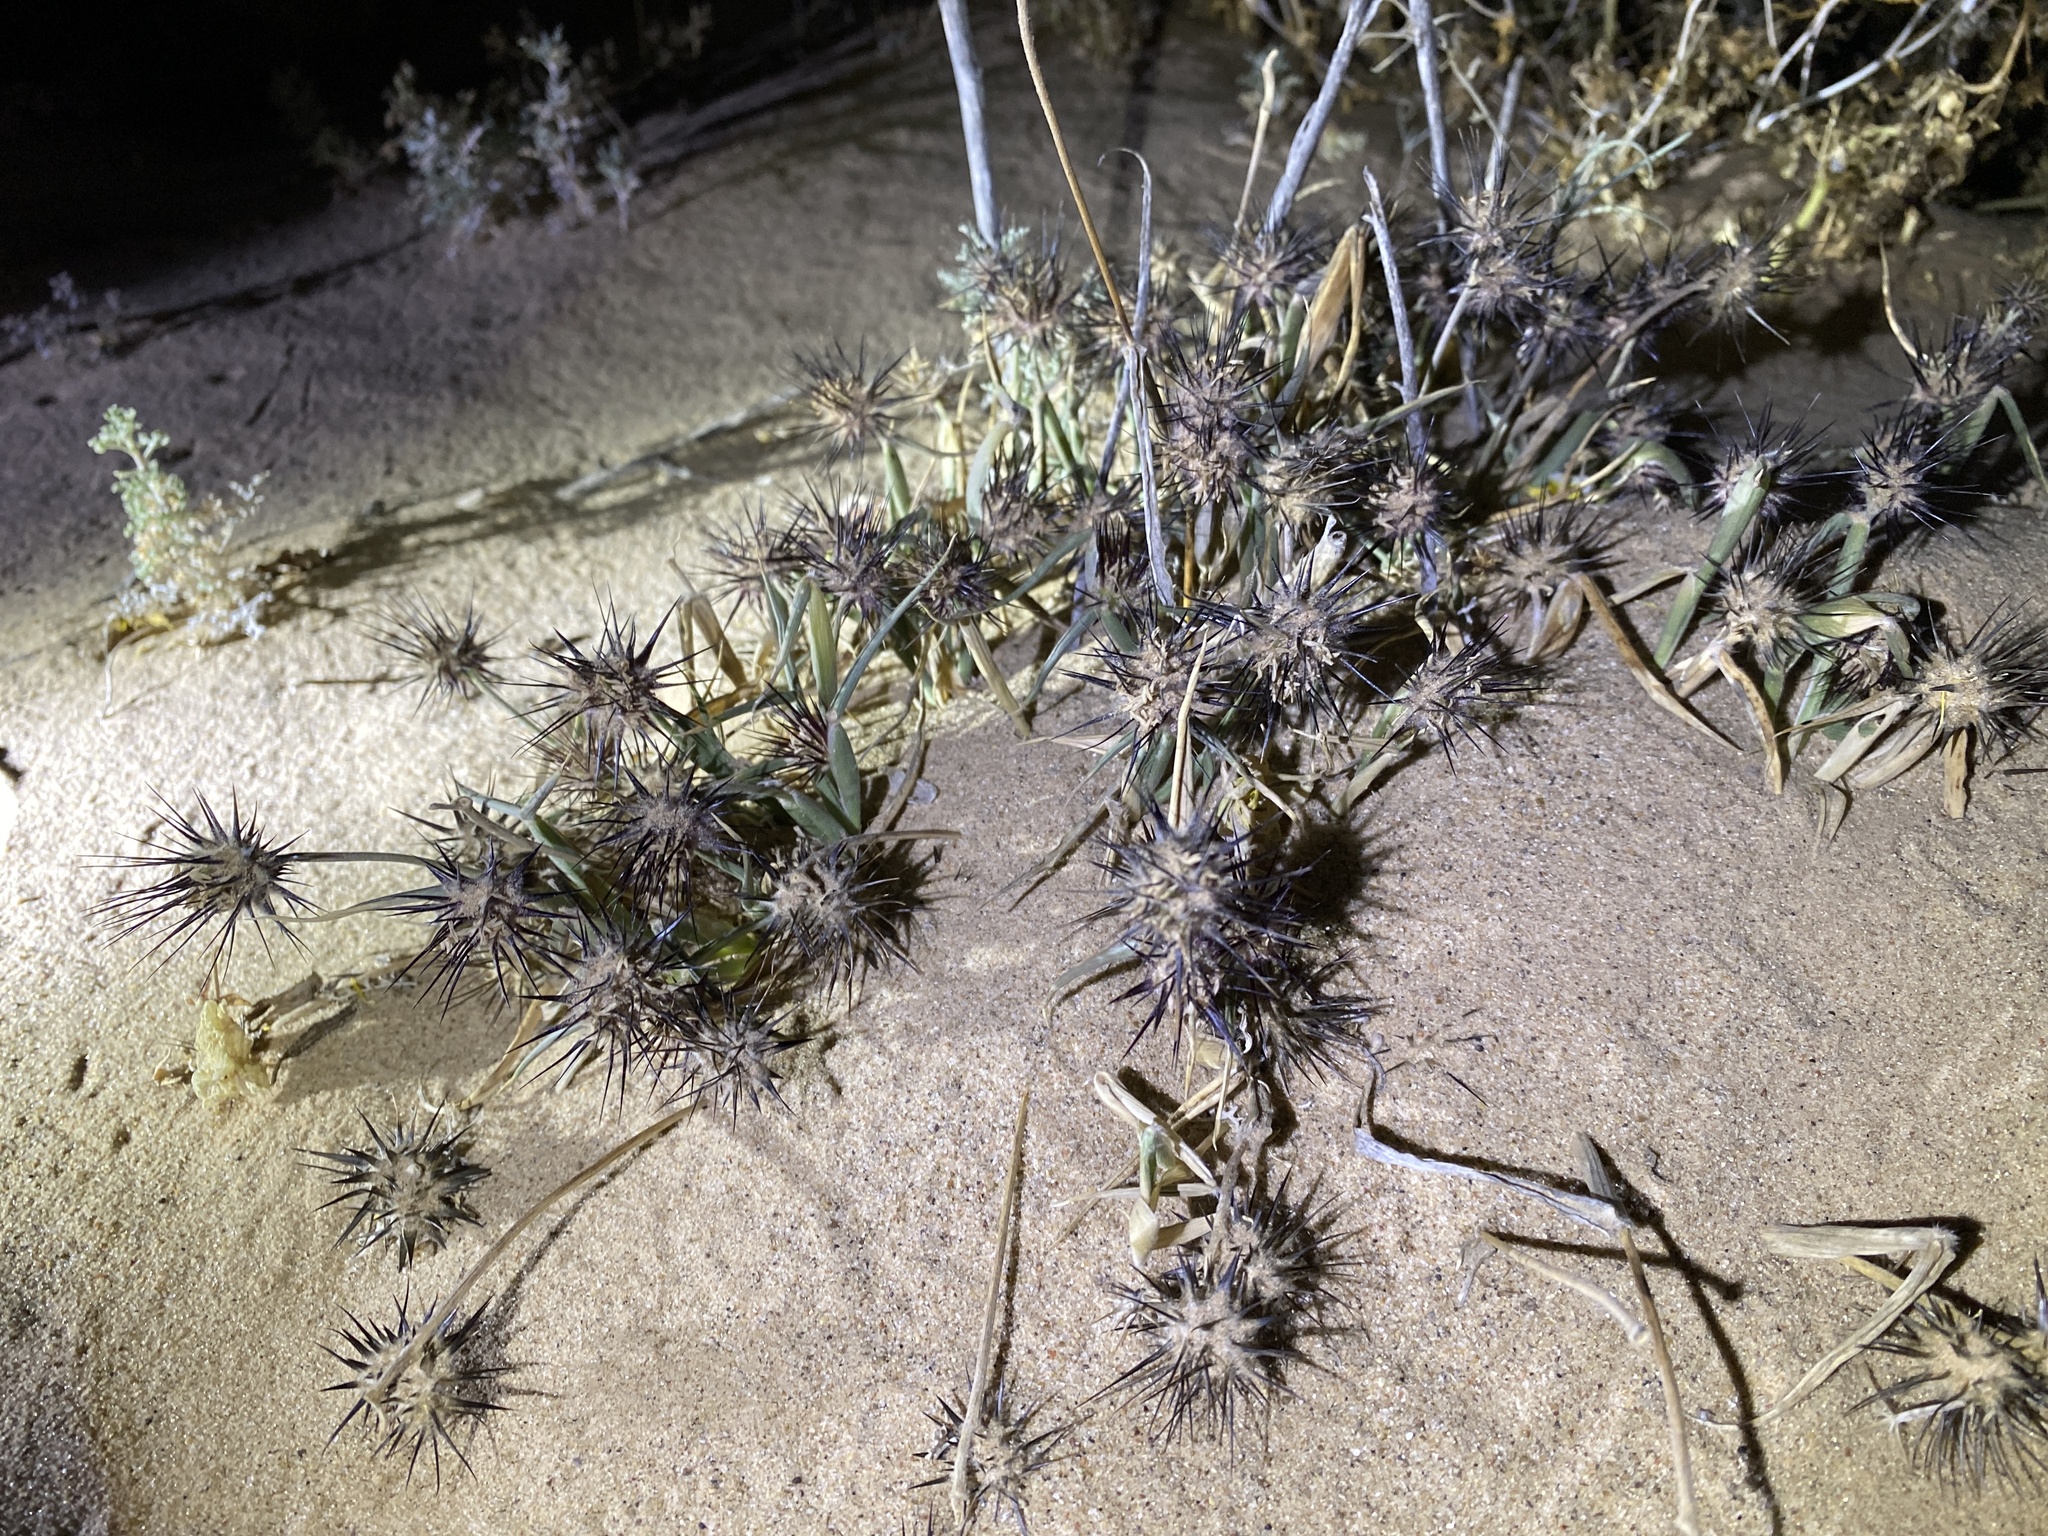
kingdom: Plantae
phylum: Tracheophyta
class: Liliopsida
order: Poales
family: Poaceae
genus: Cenchrus
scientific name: Cenchrus palmeri
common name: Giant sandbur
